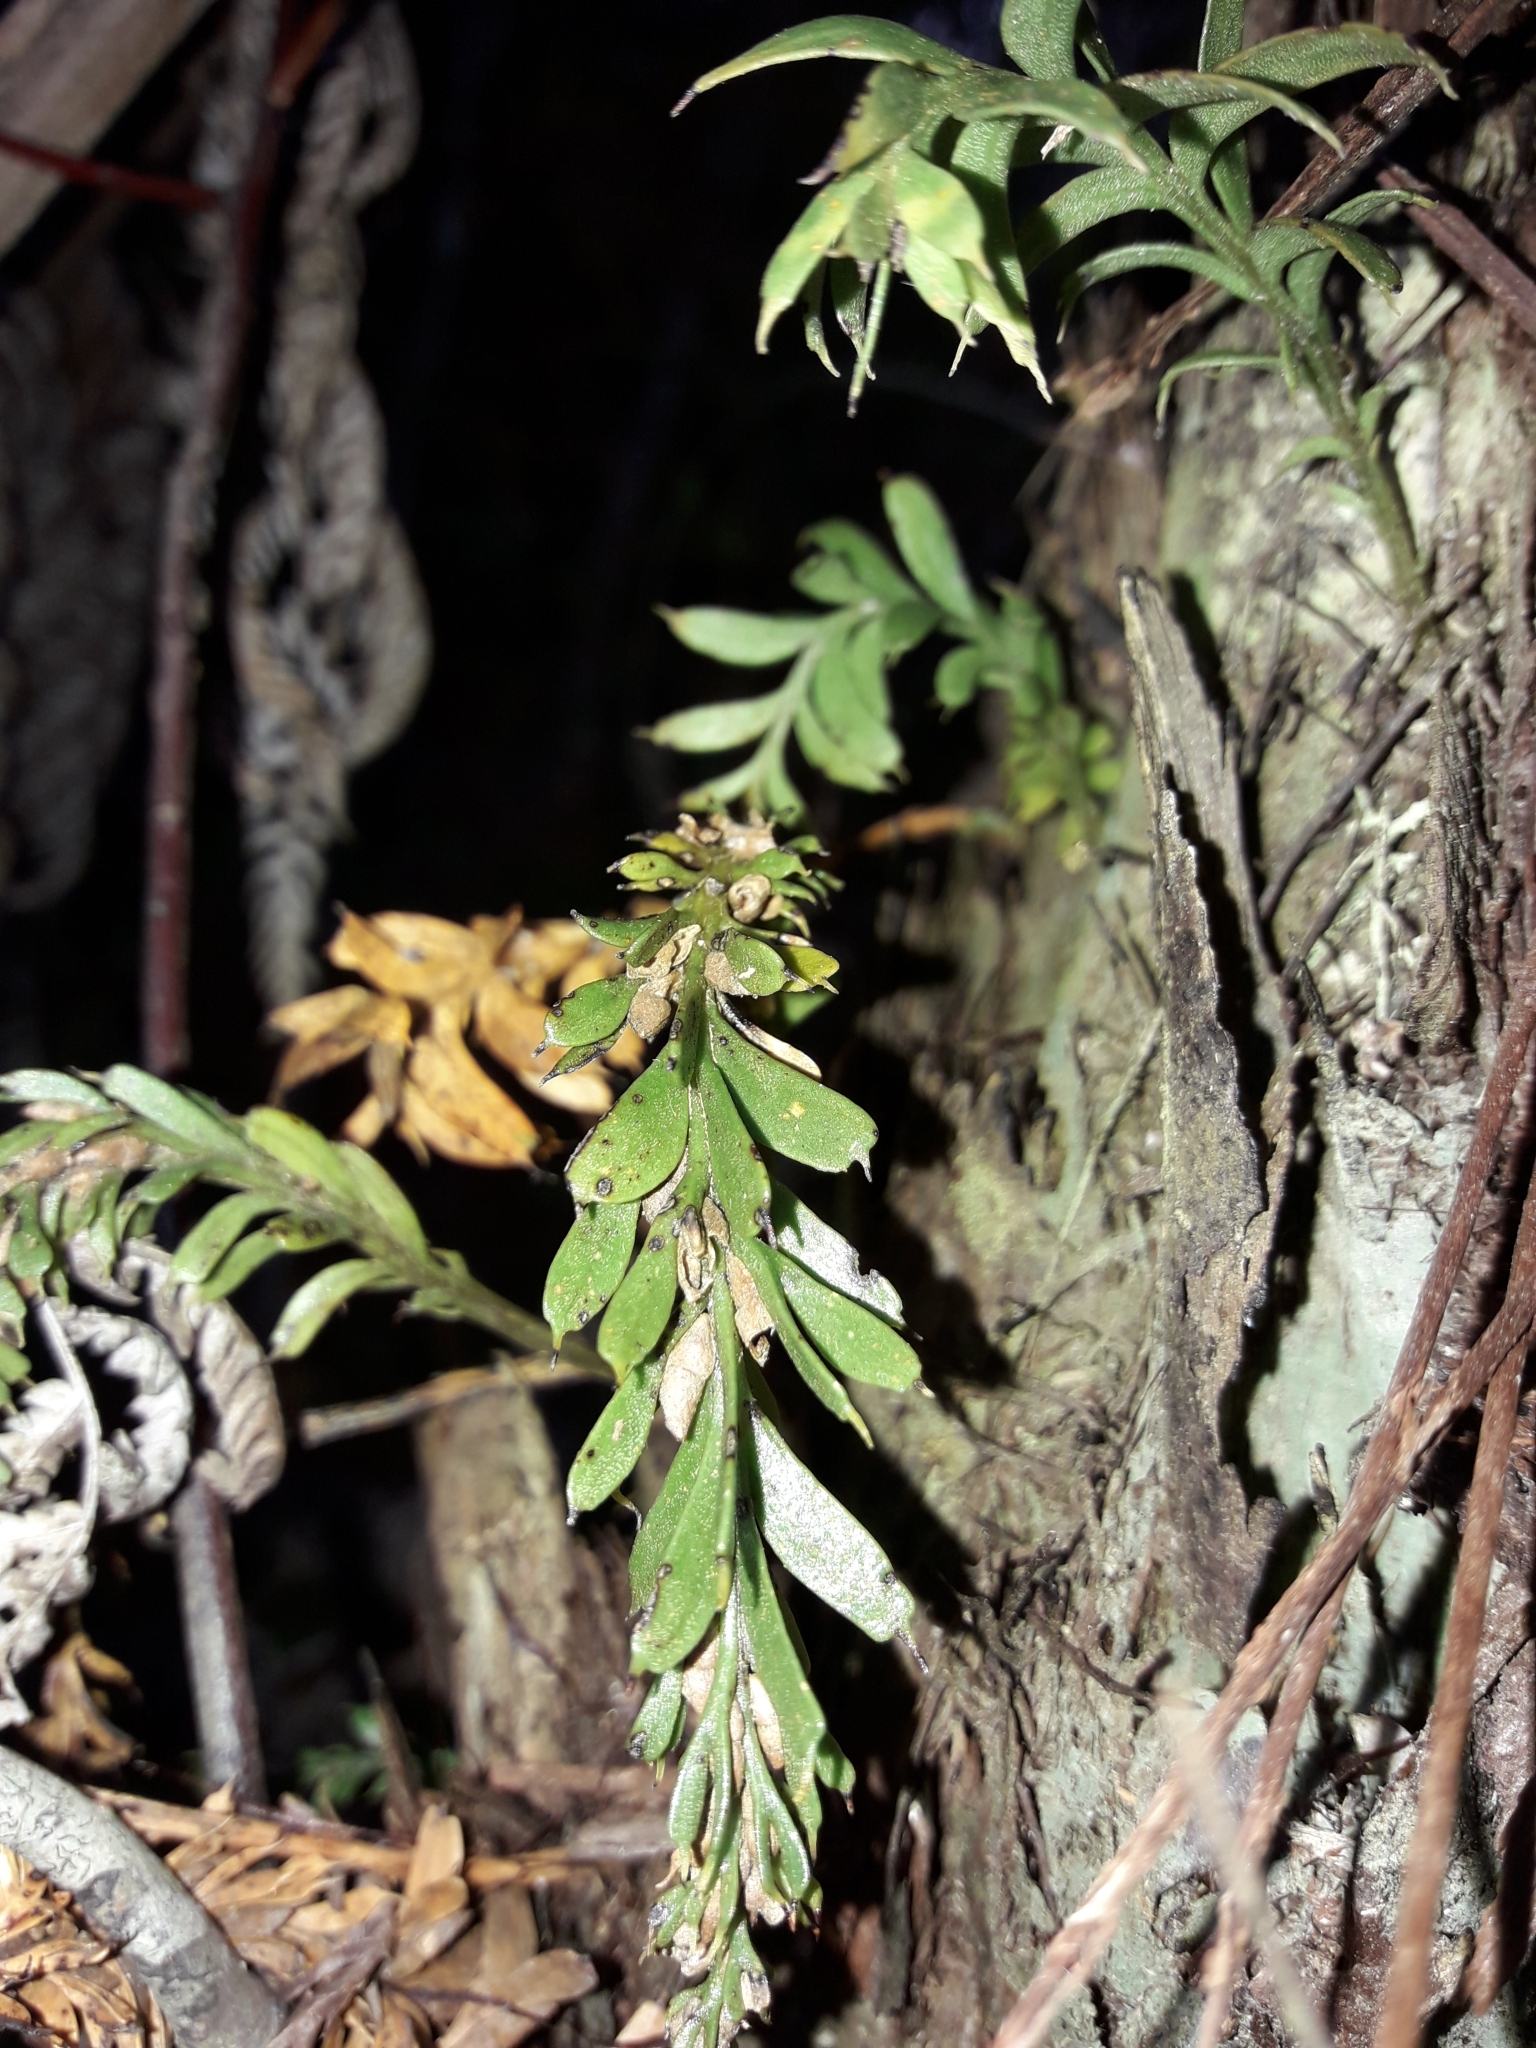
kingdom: Plantae
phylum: Tracheophyta
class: Polypodiopsida
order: Psilotales
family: Psilotaceae
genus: Tmesipteris
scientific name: Tmesipteris tannensis
